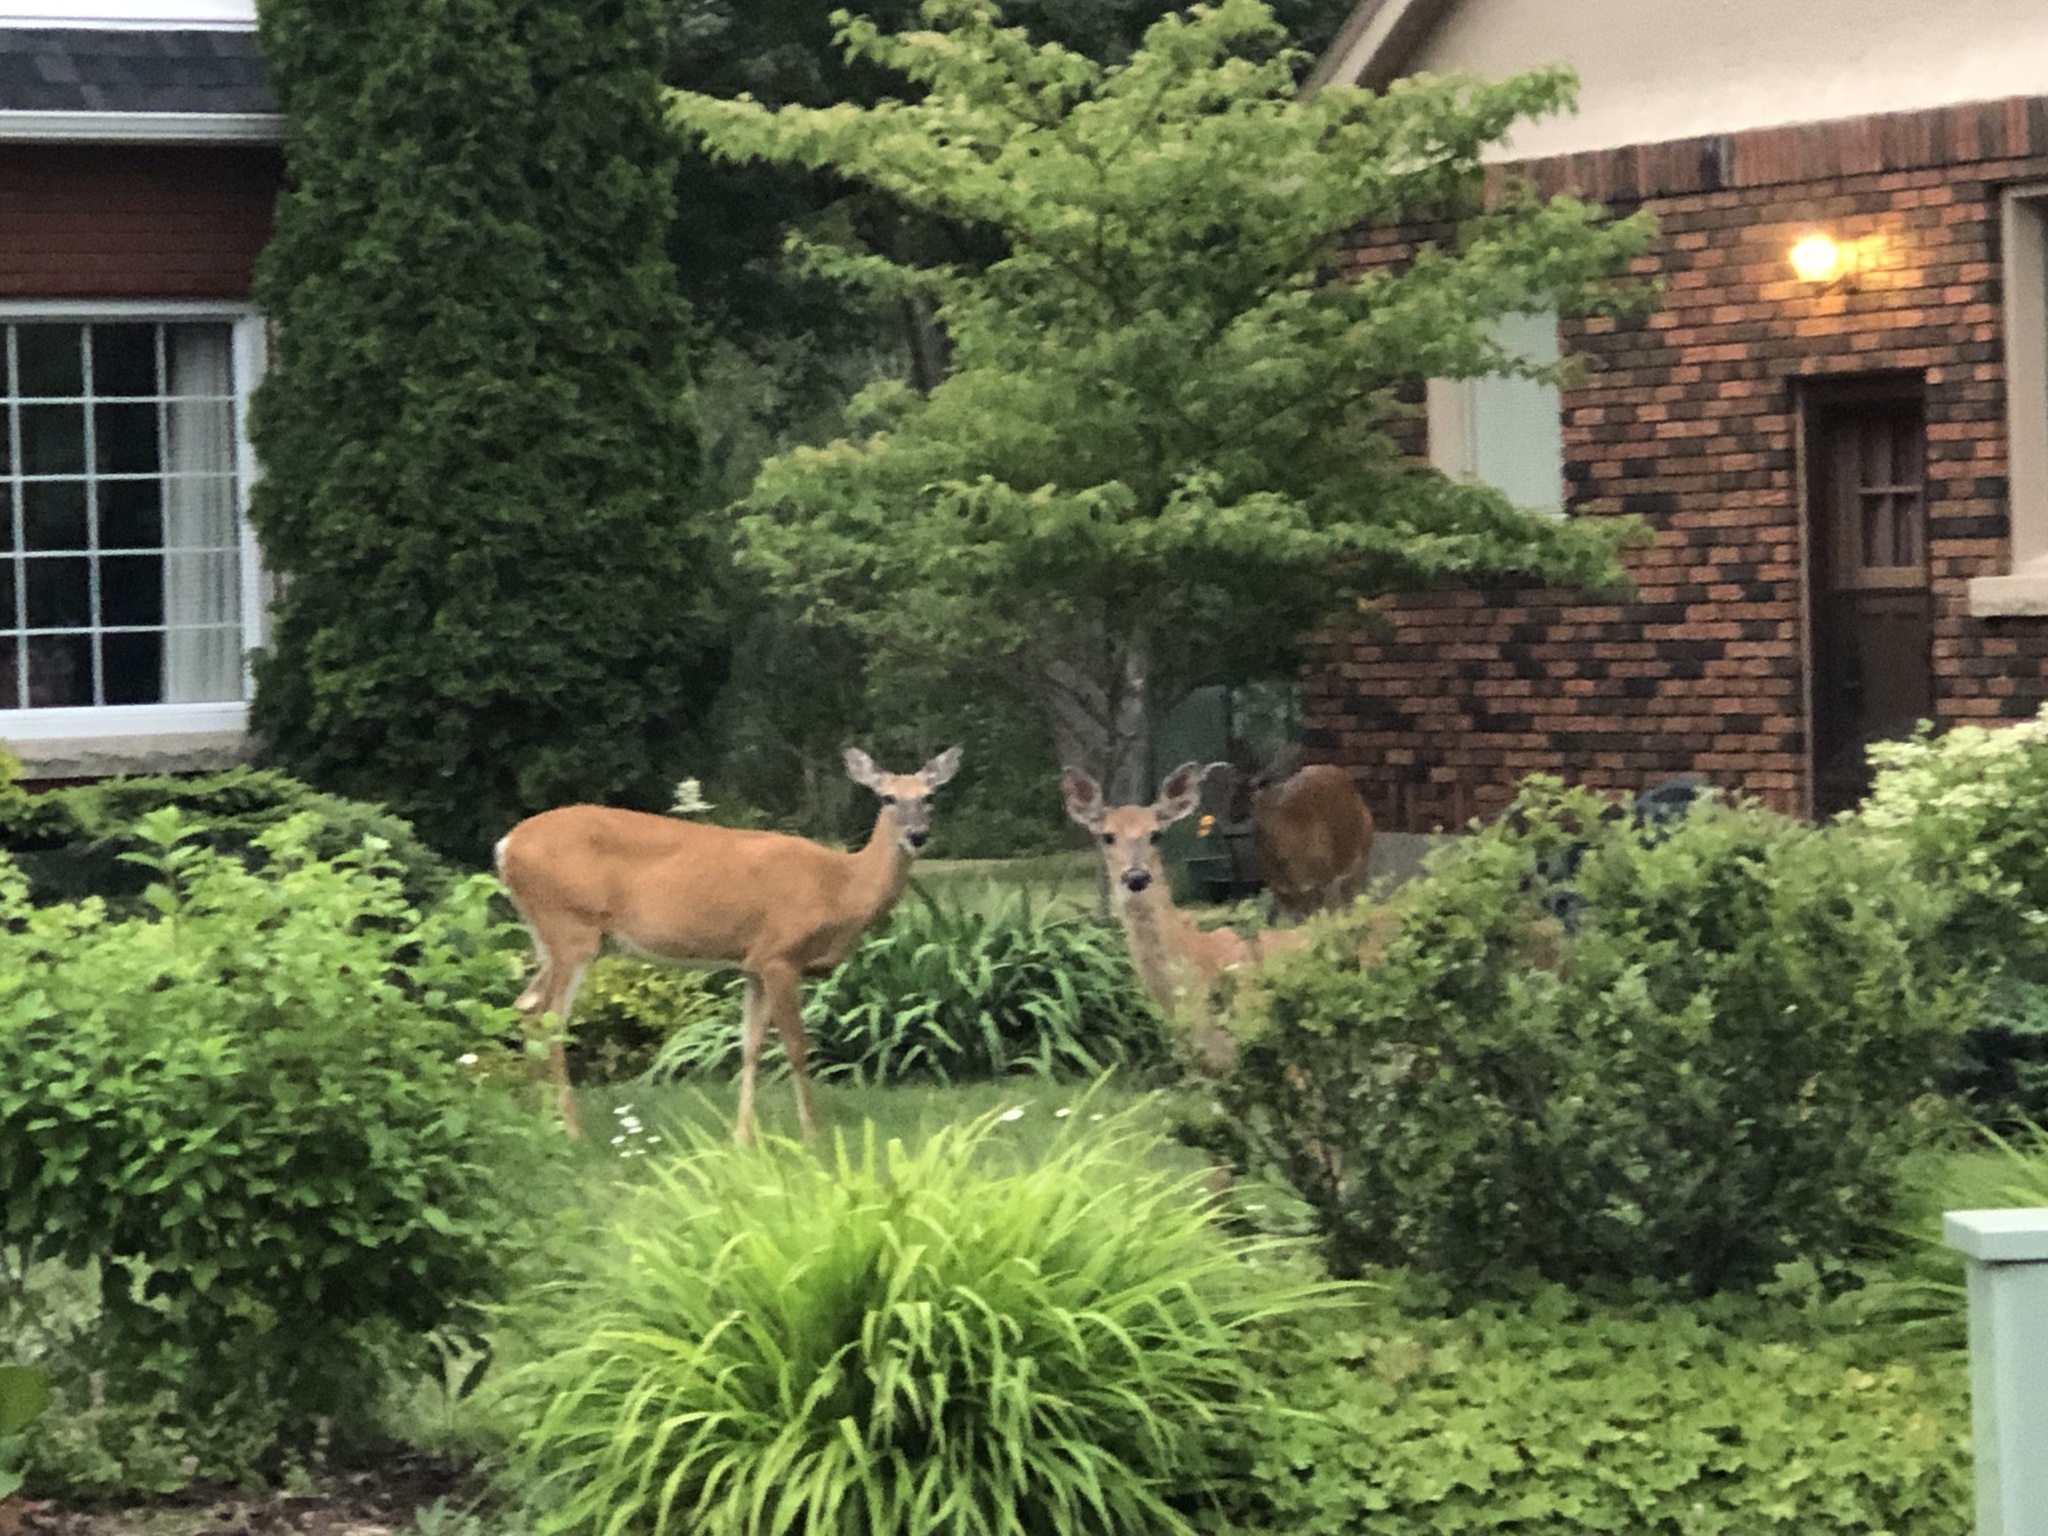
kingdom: Animalia
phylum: Chordata
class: Mammalia
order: Artiodactyla
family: Cervidae
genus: Odocoileus
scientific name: Odocoileus virginianus
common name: White-tailed deer
